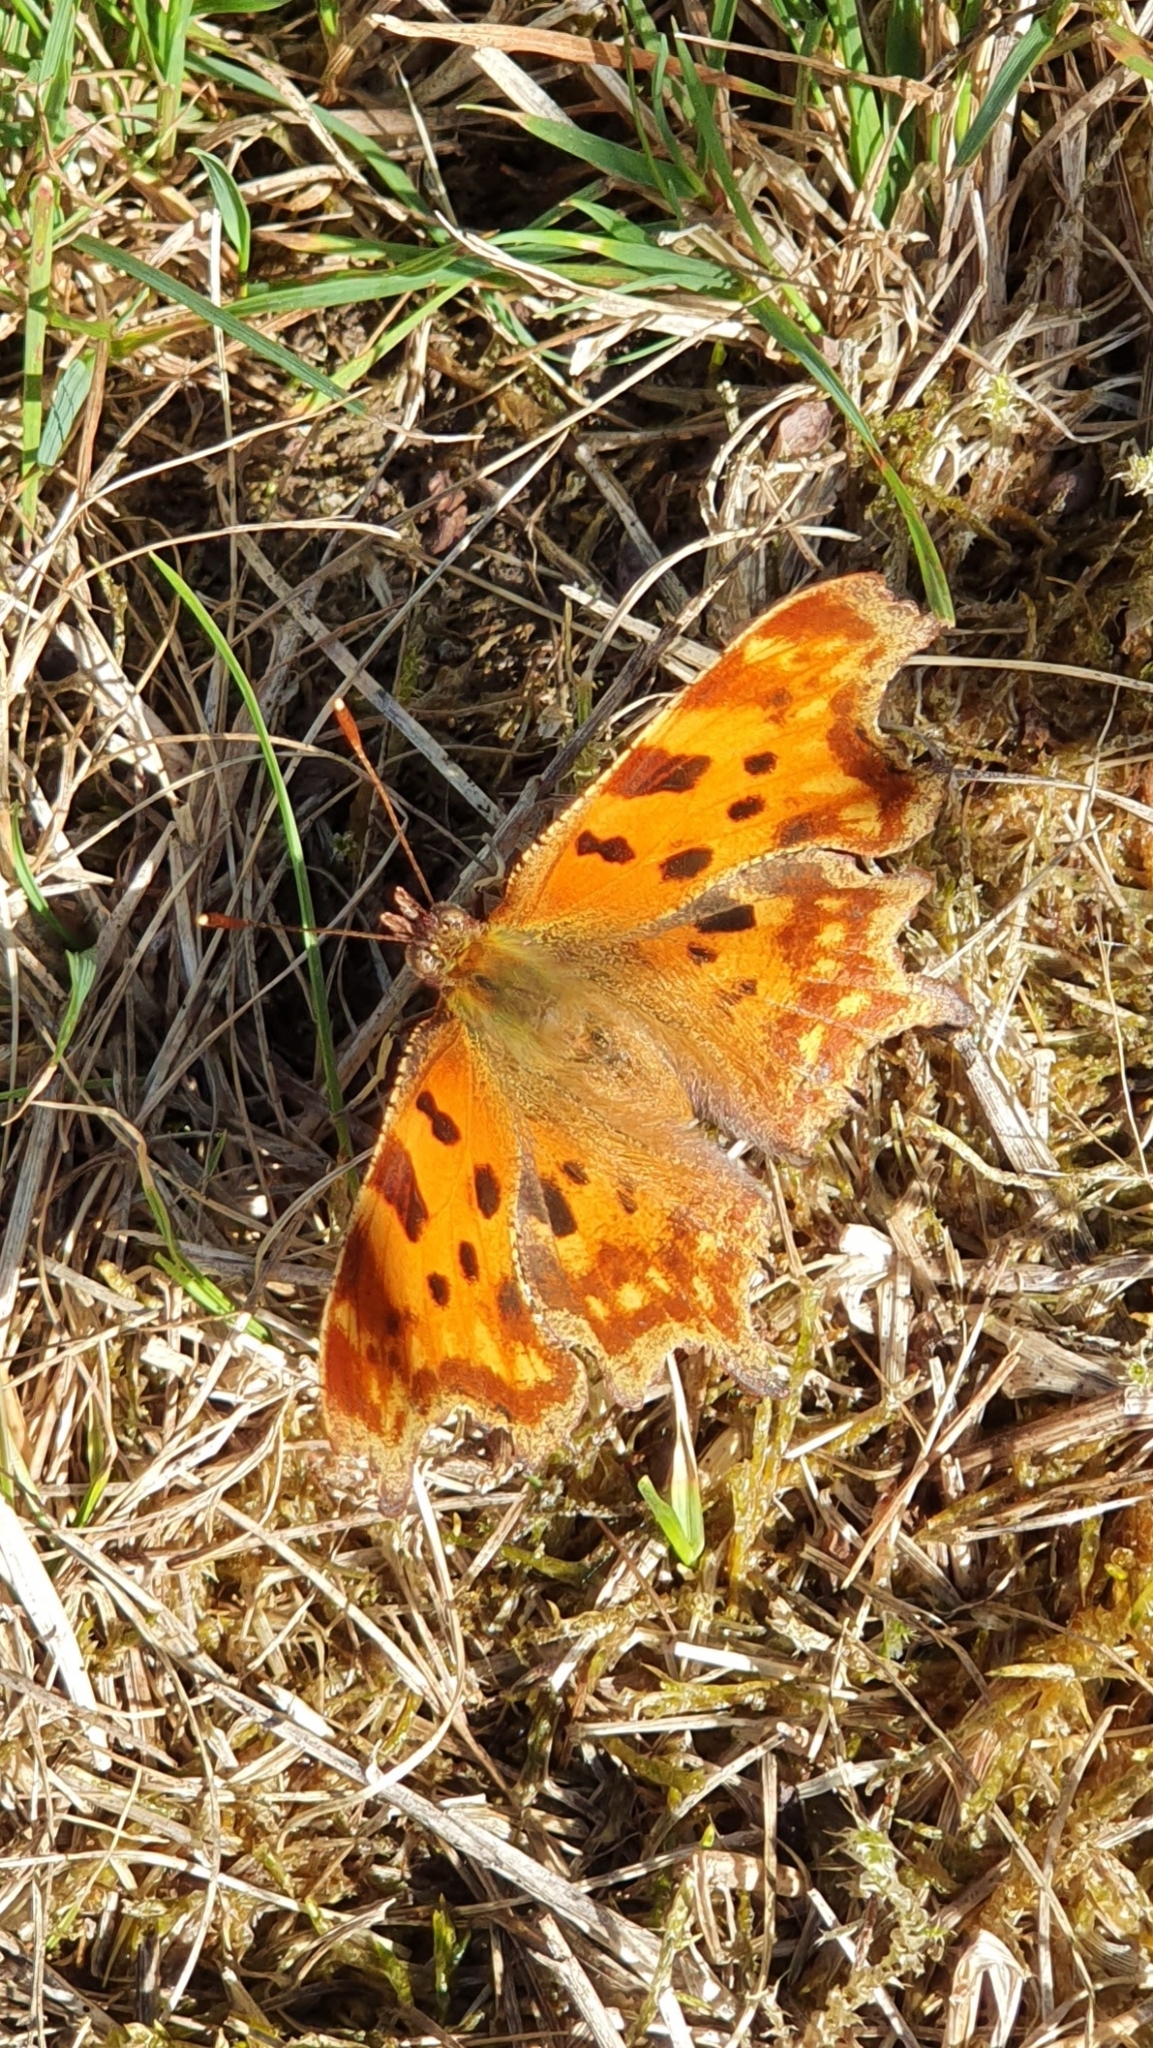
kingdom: Animalia
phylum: Arthropoda
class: Insecta
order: Lepidoptera
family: Nymphalidae
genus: Polygonia
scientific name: Polygonia c-album
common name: Comma
